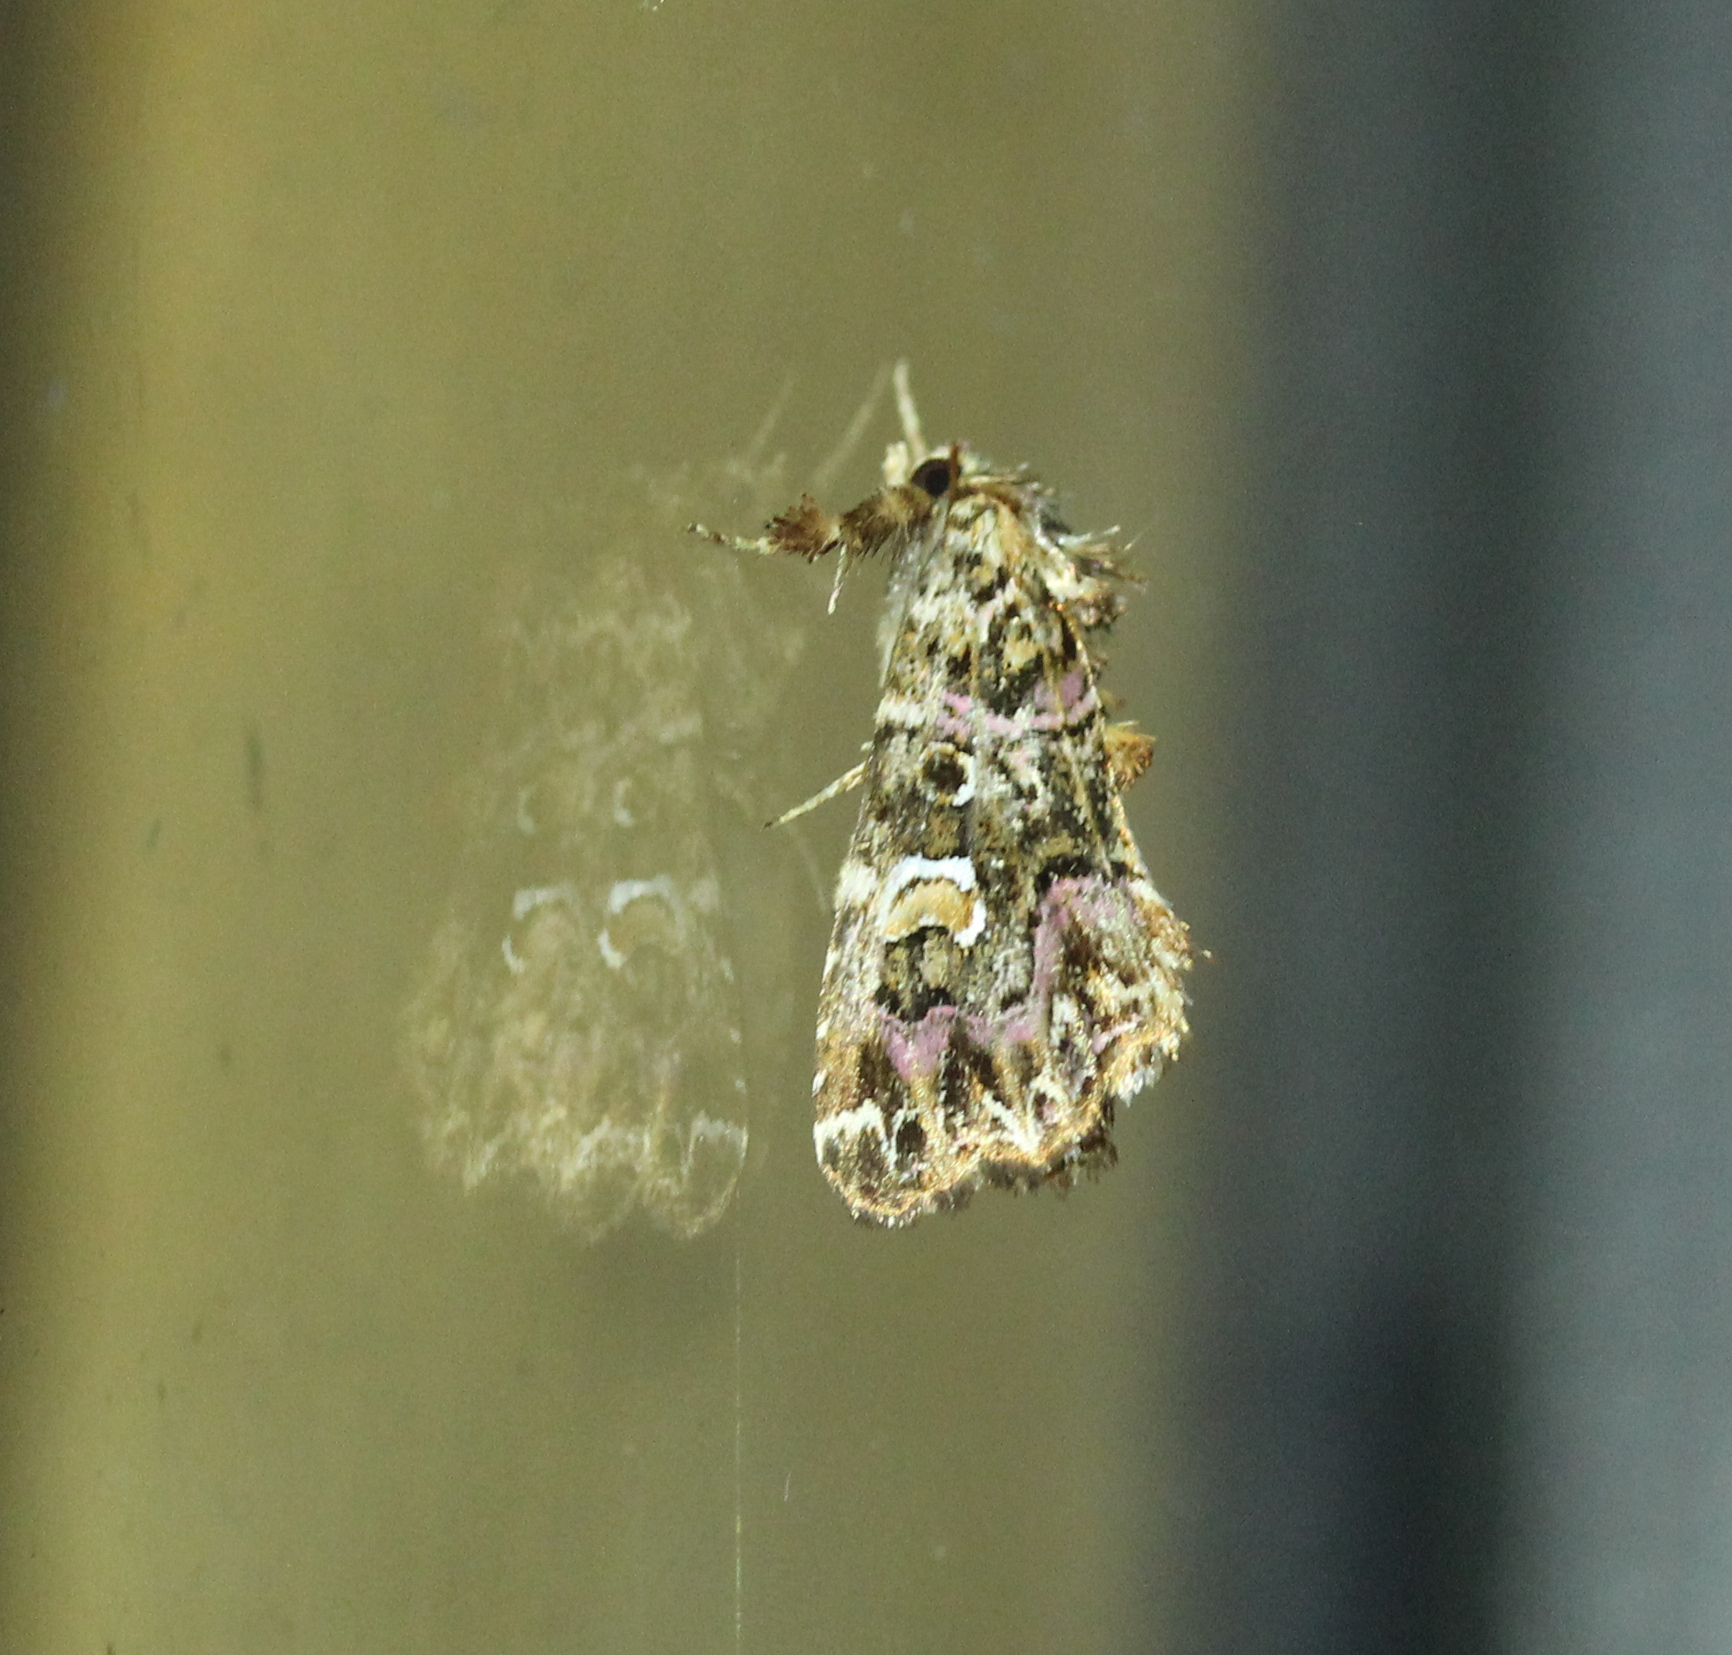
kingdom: Animalia
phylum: Arthropoda
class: Insecta
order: Lepidoptera
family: Noctuidae
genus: Callopistria
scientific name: Callopistria mollissima
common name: Pink-shaded fern moth
